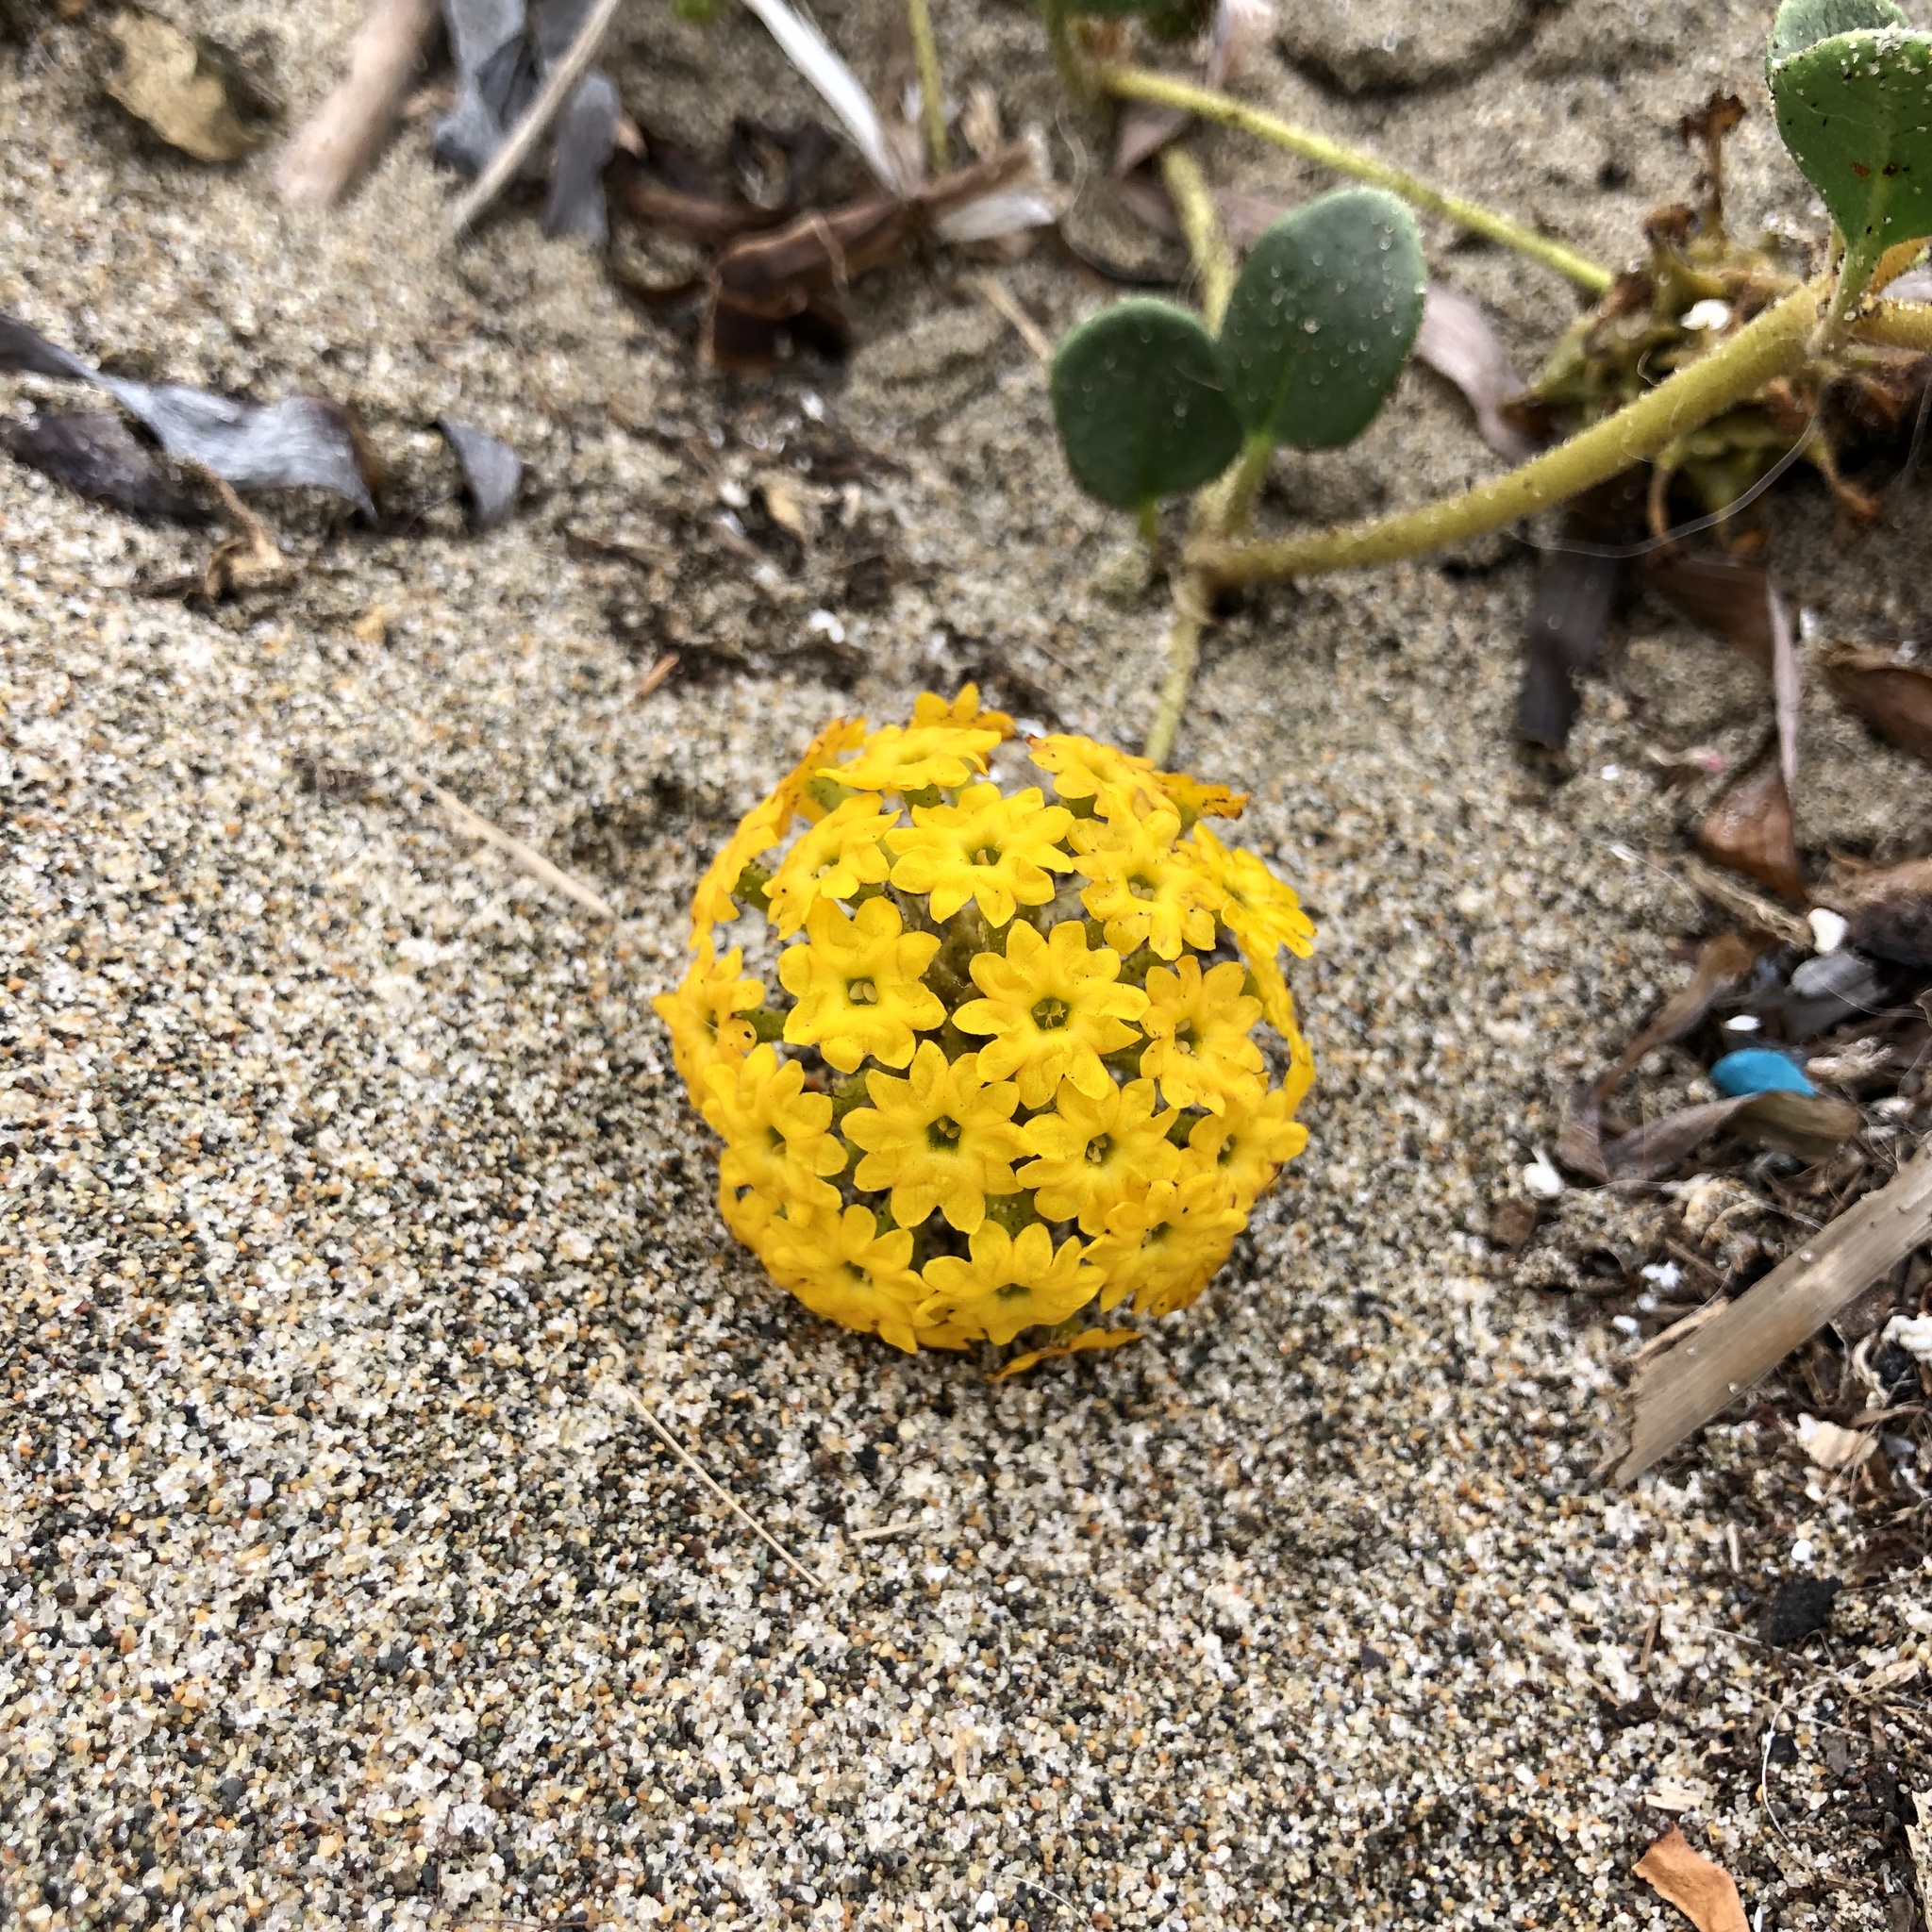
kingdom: Plantae
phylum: Tracheophyta
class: Magnoliopsida
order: Caryophyllales
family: Nyctaginaceae
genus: Abronia
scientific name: Abronia latifolia
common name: Yellow sand-verbena
